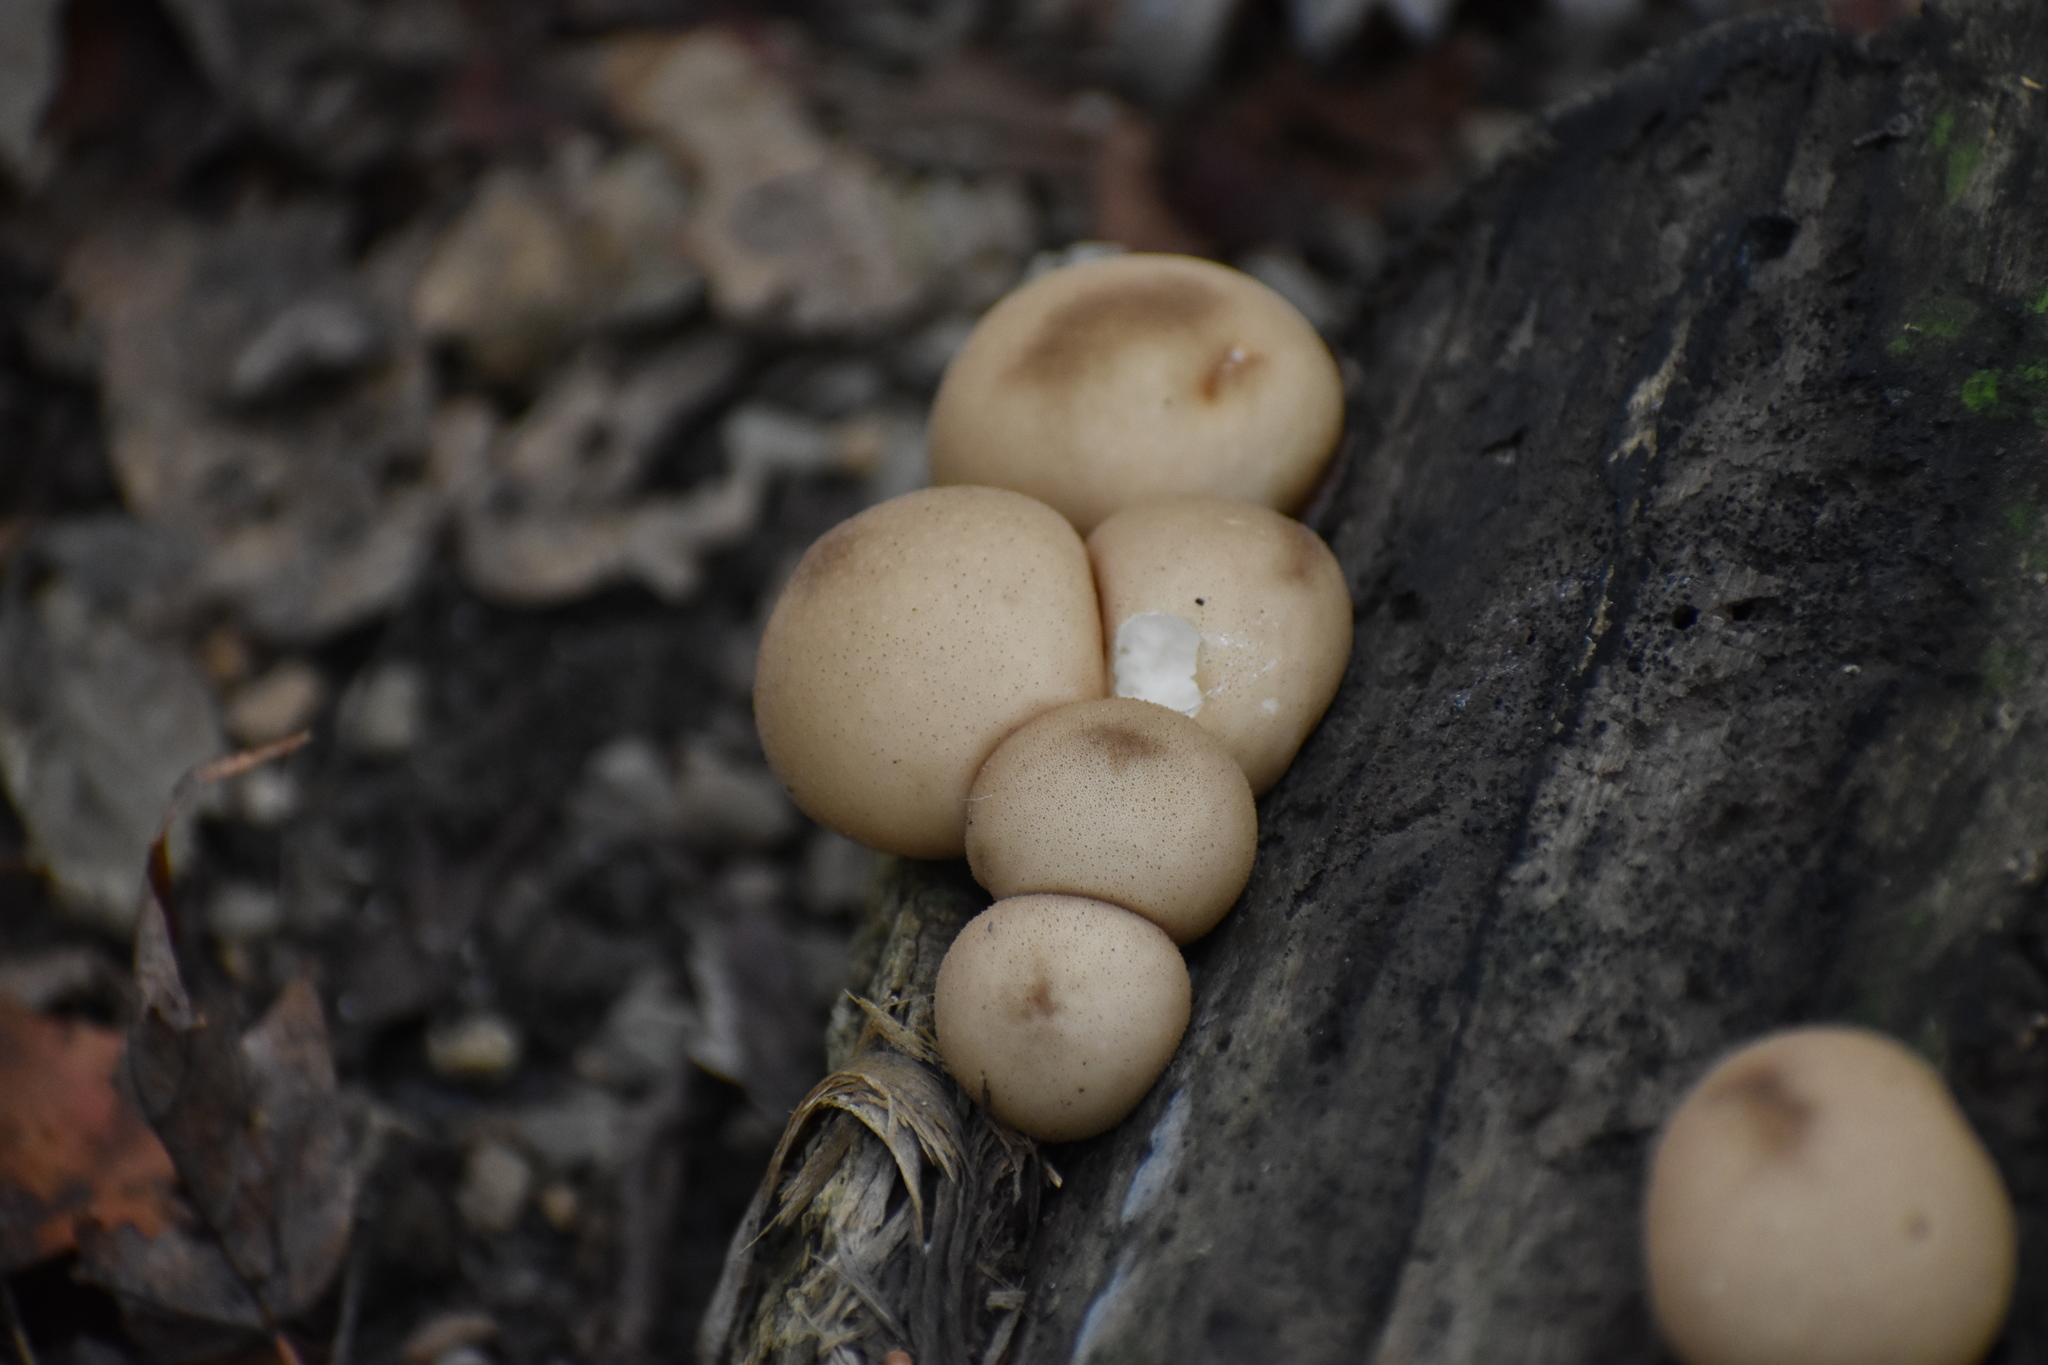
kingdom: Fungi
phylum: Basidiomycota
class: Agaricomycetes
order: Agaricales
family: Lycoperdaceae
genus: Apioperdon
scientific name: Apioperdon pyriforme
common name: Pear-shaped puffball
